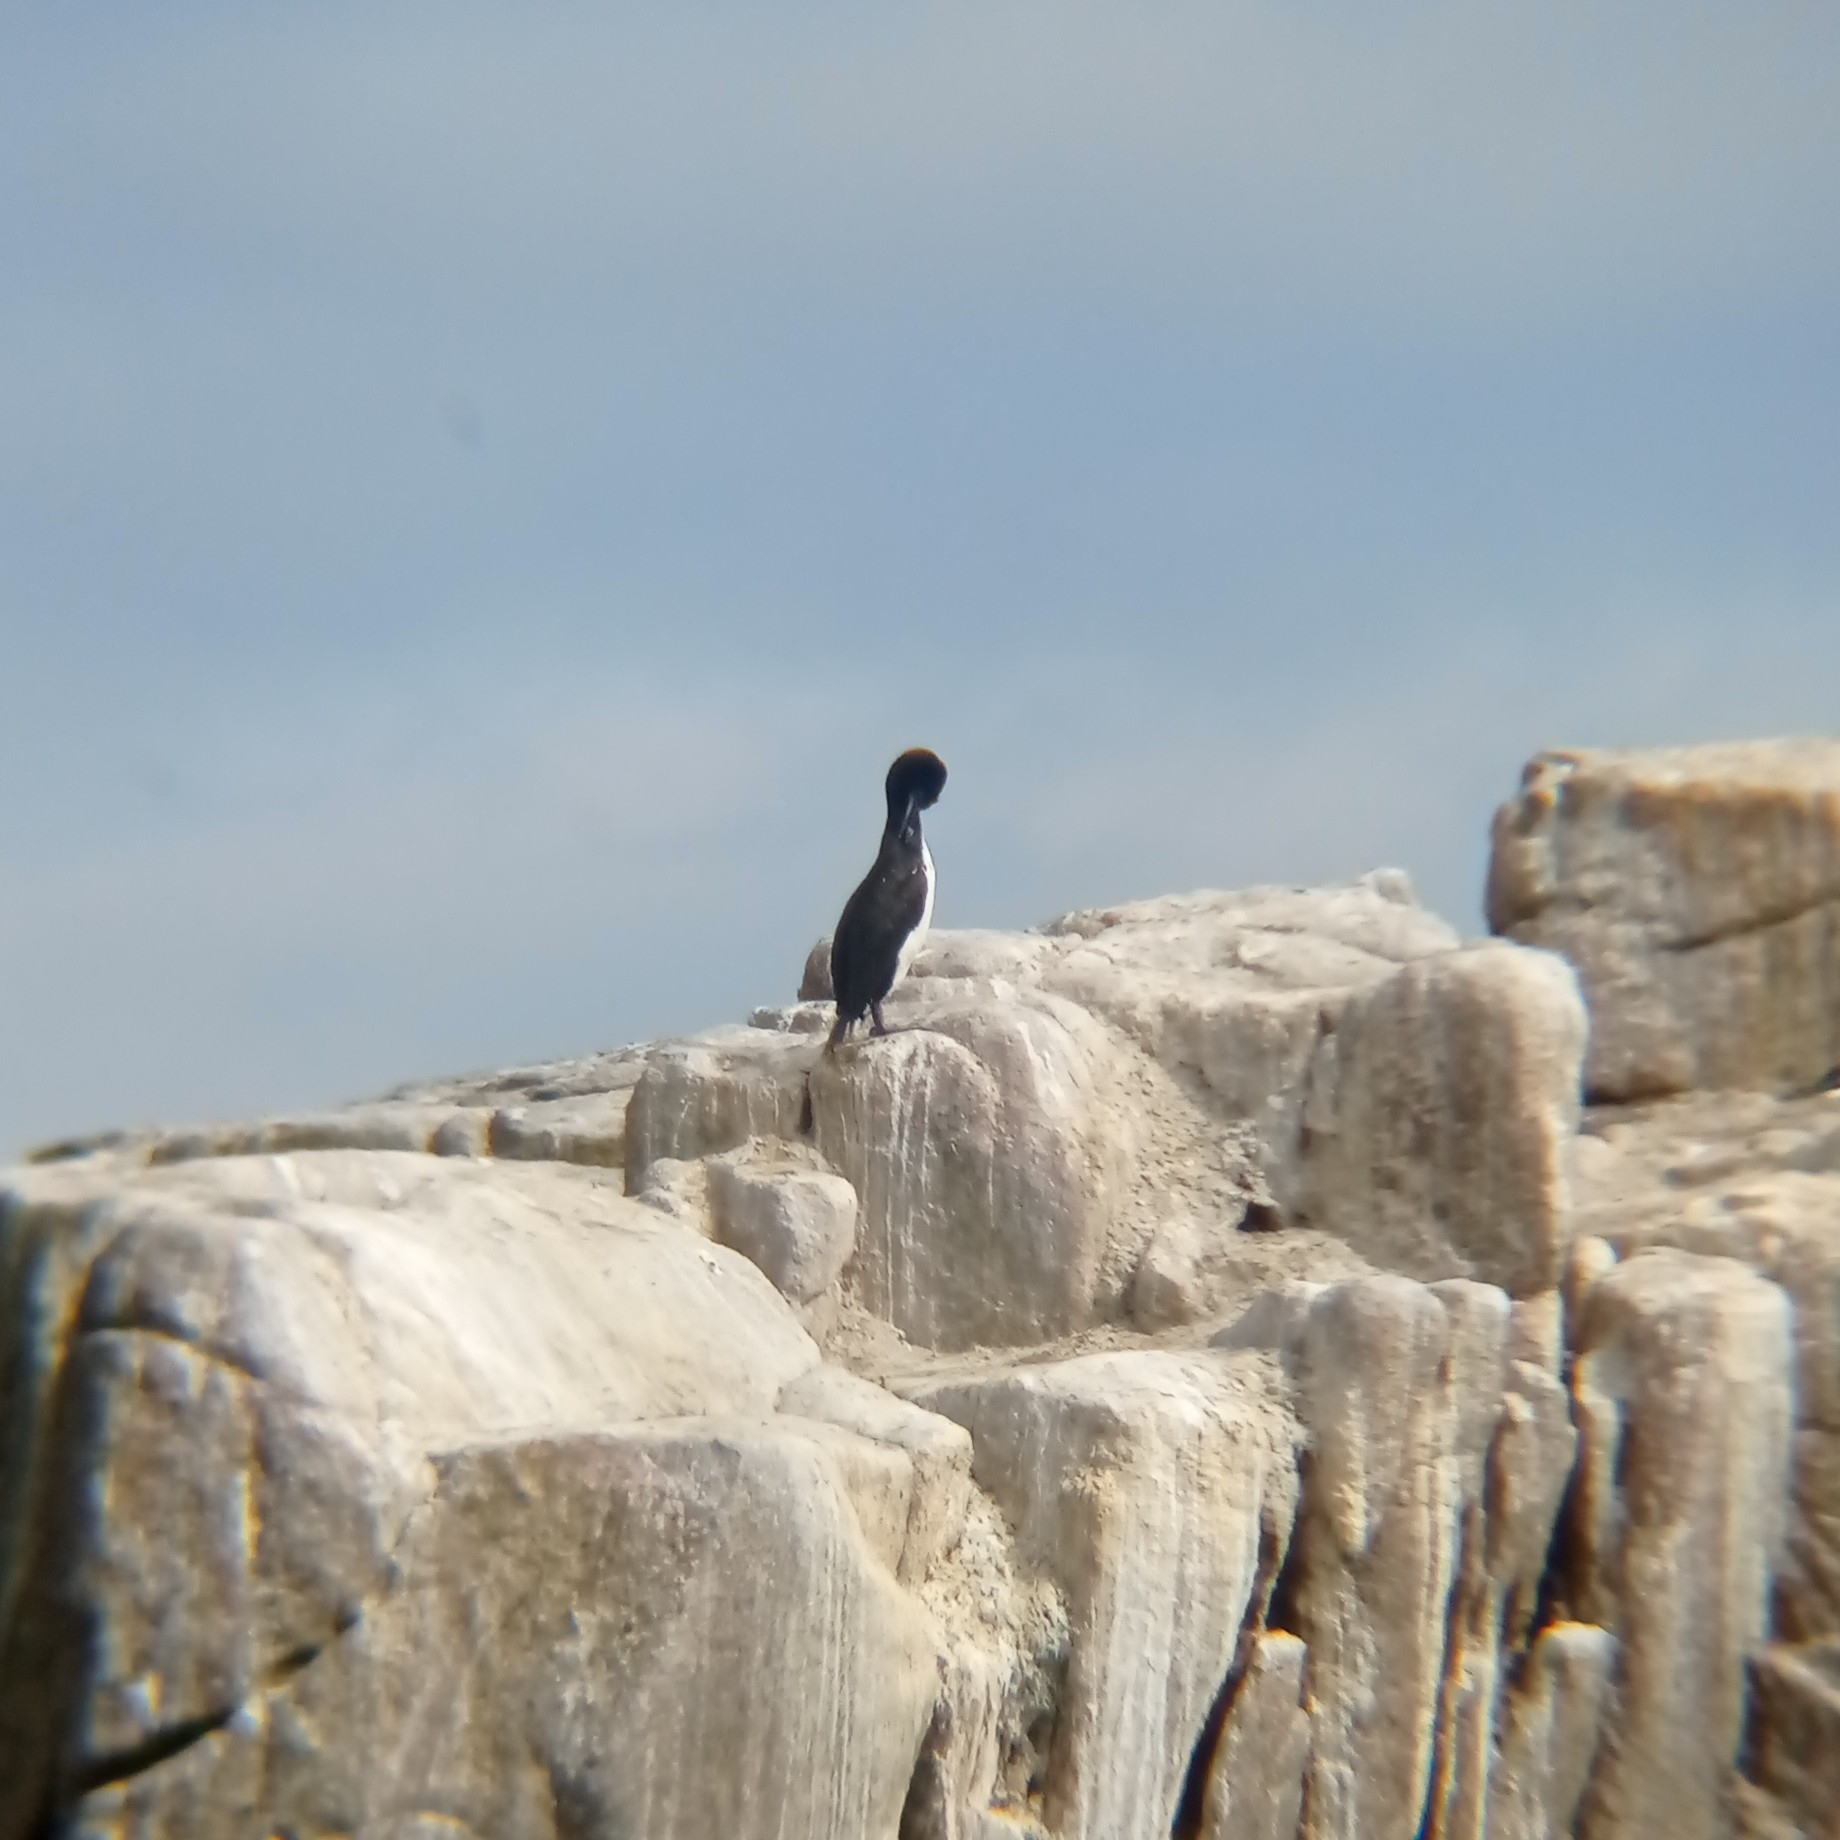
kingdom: Animalia
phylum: Chordata
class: Aves
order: Suliformes
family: Phalacrocoracidae
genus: Leucocarbo
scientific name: Leucocarbo bougainvillii
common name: Guanay cormorant
